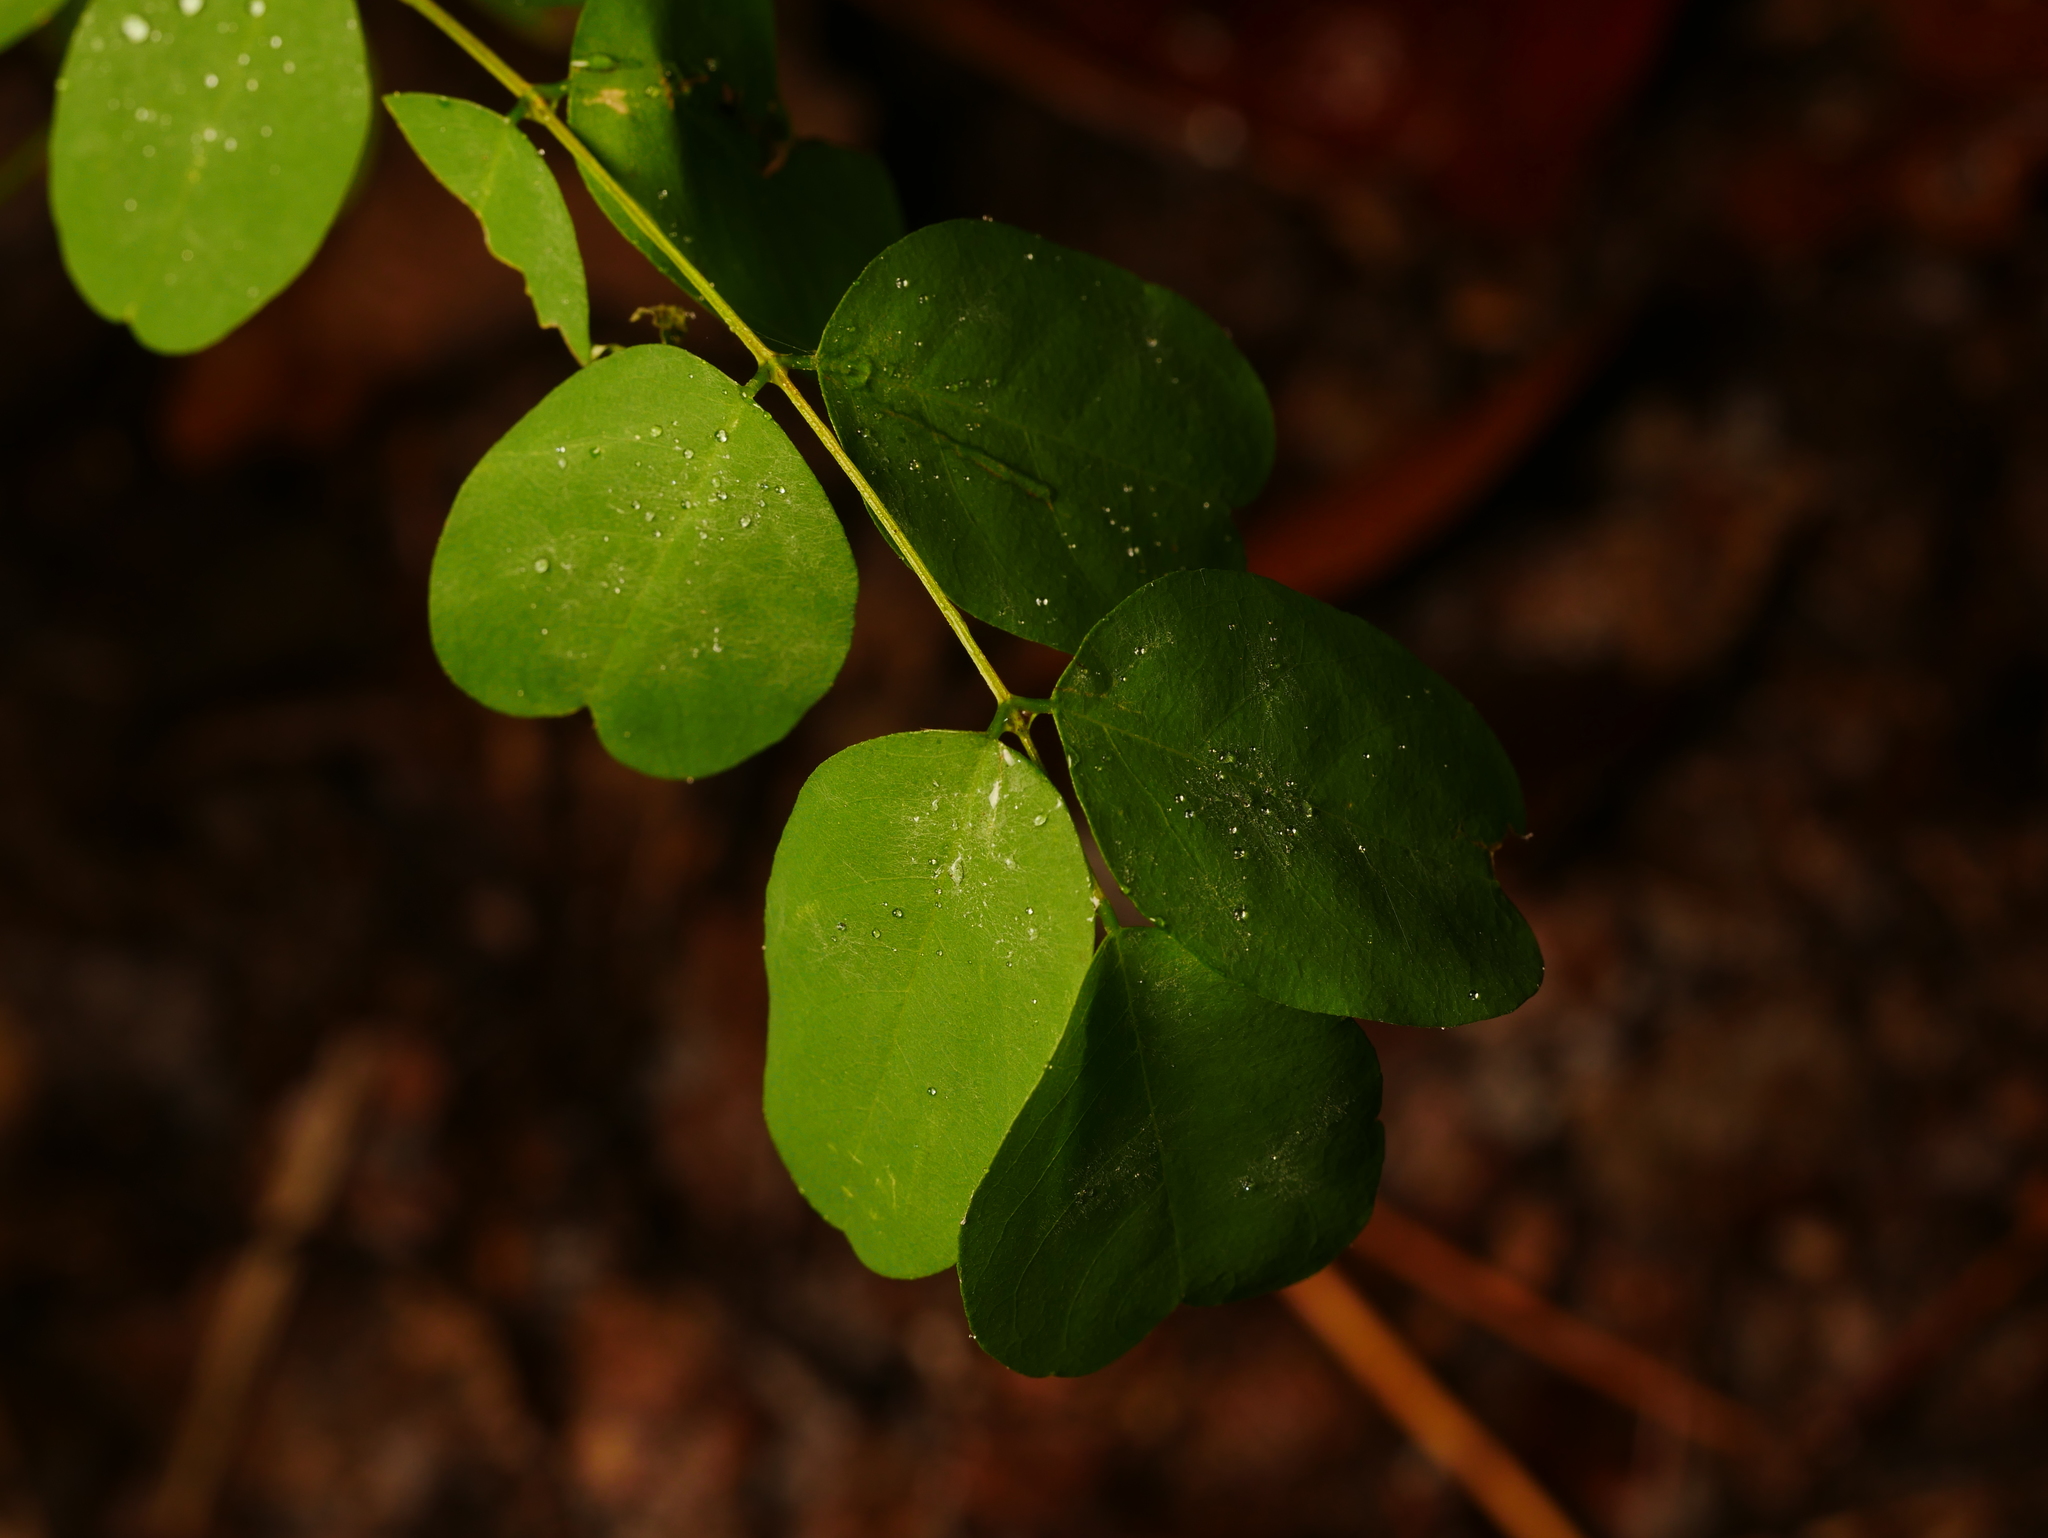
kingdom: Plantae
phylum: Tracheophyta
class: Magnoliopsida
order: Fabales
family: Fabaceae
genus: Robinia
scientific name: Robinia pseudoacacia
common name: Black locust
